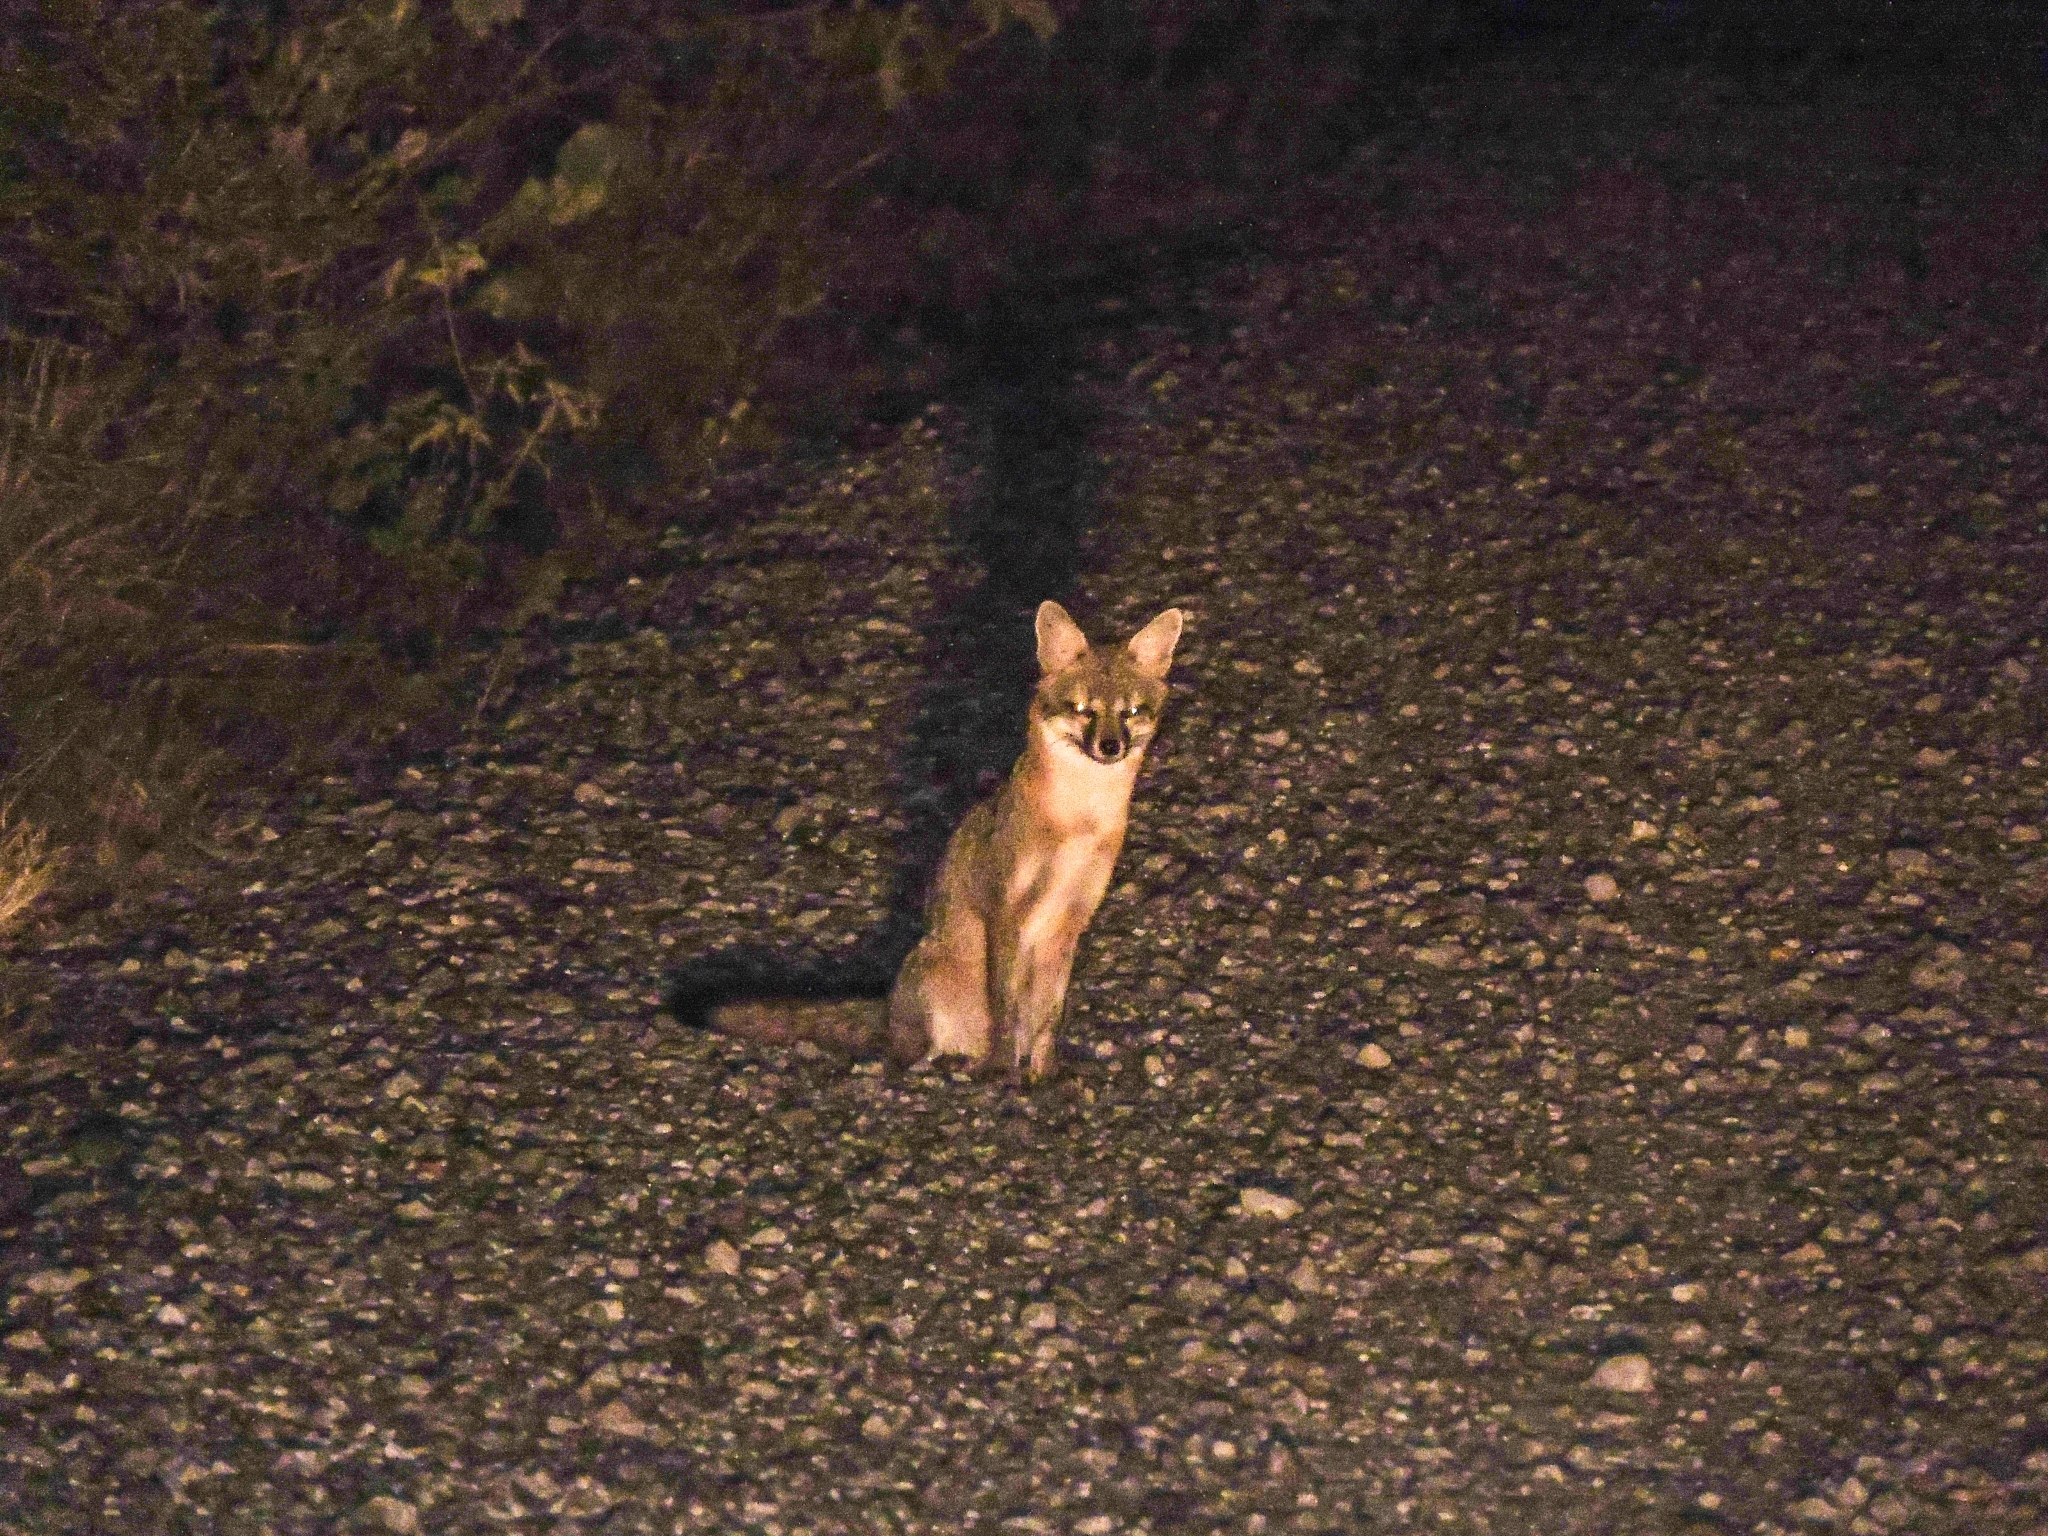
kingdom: Animalia
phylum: Chordata
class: Mammalia
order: Carnivora
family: Canidae
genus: Urocyon
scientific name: Urocyon cinereoargenteus
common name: Gray fox
